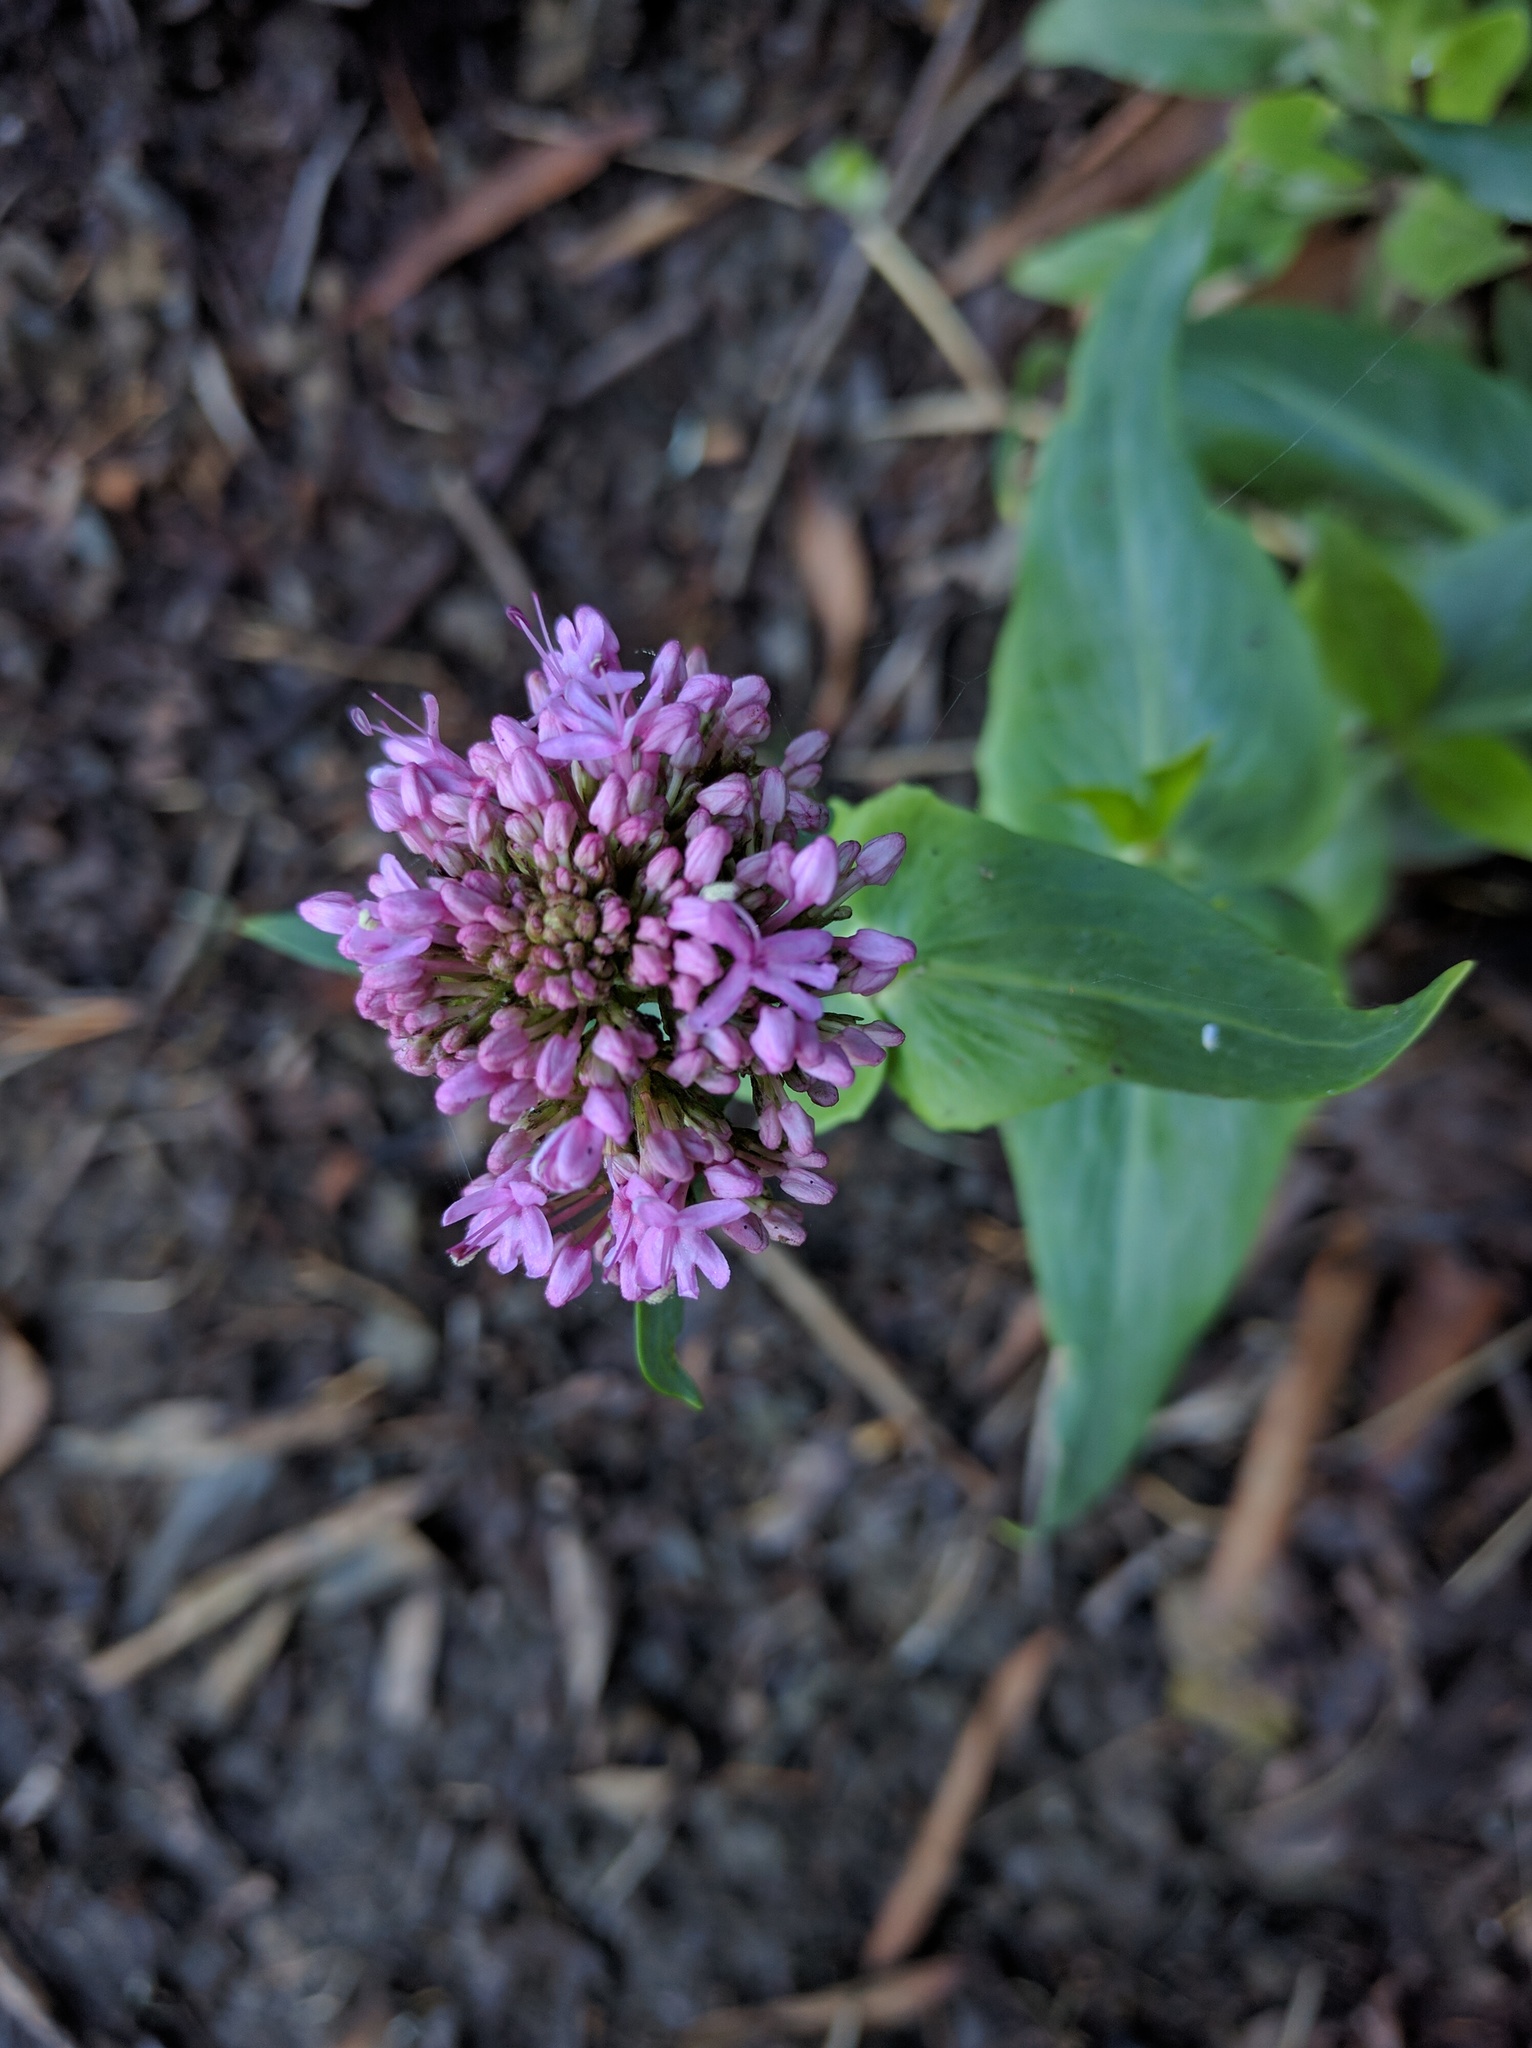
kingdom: Plantae
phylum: Tracheophyta
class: Magnoliopsida
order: Dipsacales
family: Caprifoliaceae
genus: Centranthus
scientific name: Centranthus ruber
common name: Red valerian
